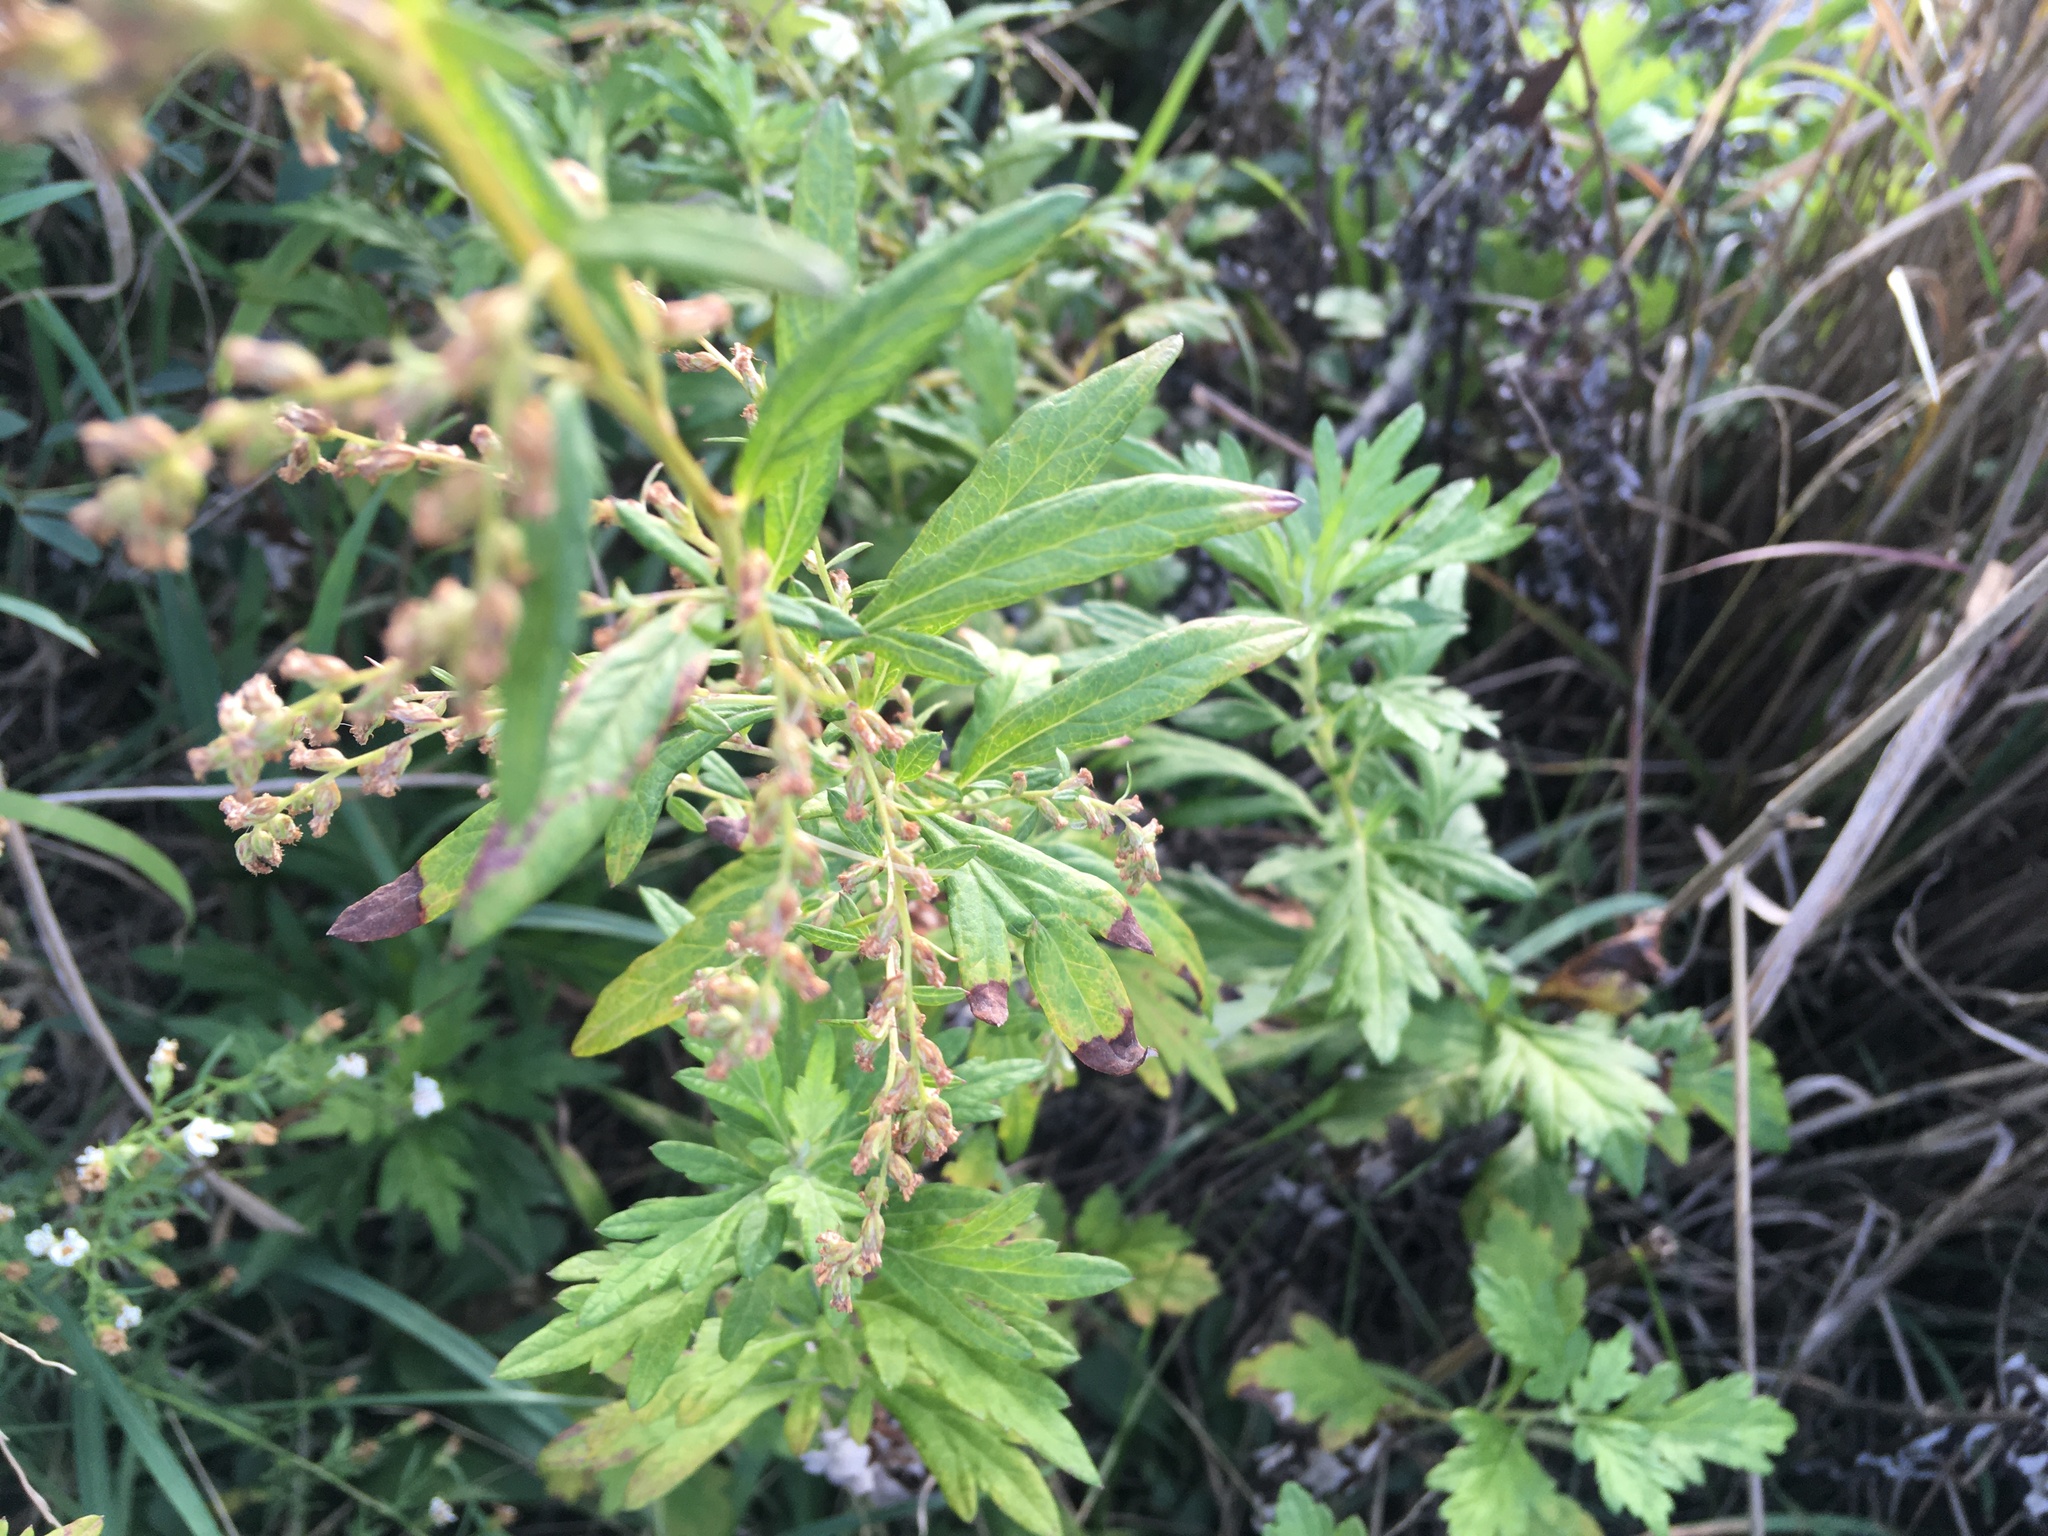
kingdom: Plantae
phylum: Tracheophyta
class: Magnoliopsida
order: Asterales
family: Asteraceae
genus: Artemisia
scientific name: Artemisia vulgaris
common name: Mugwort
